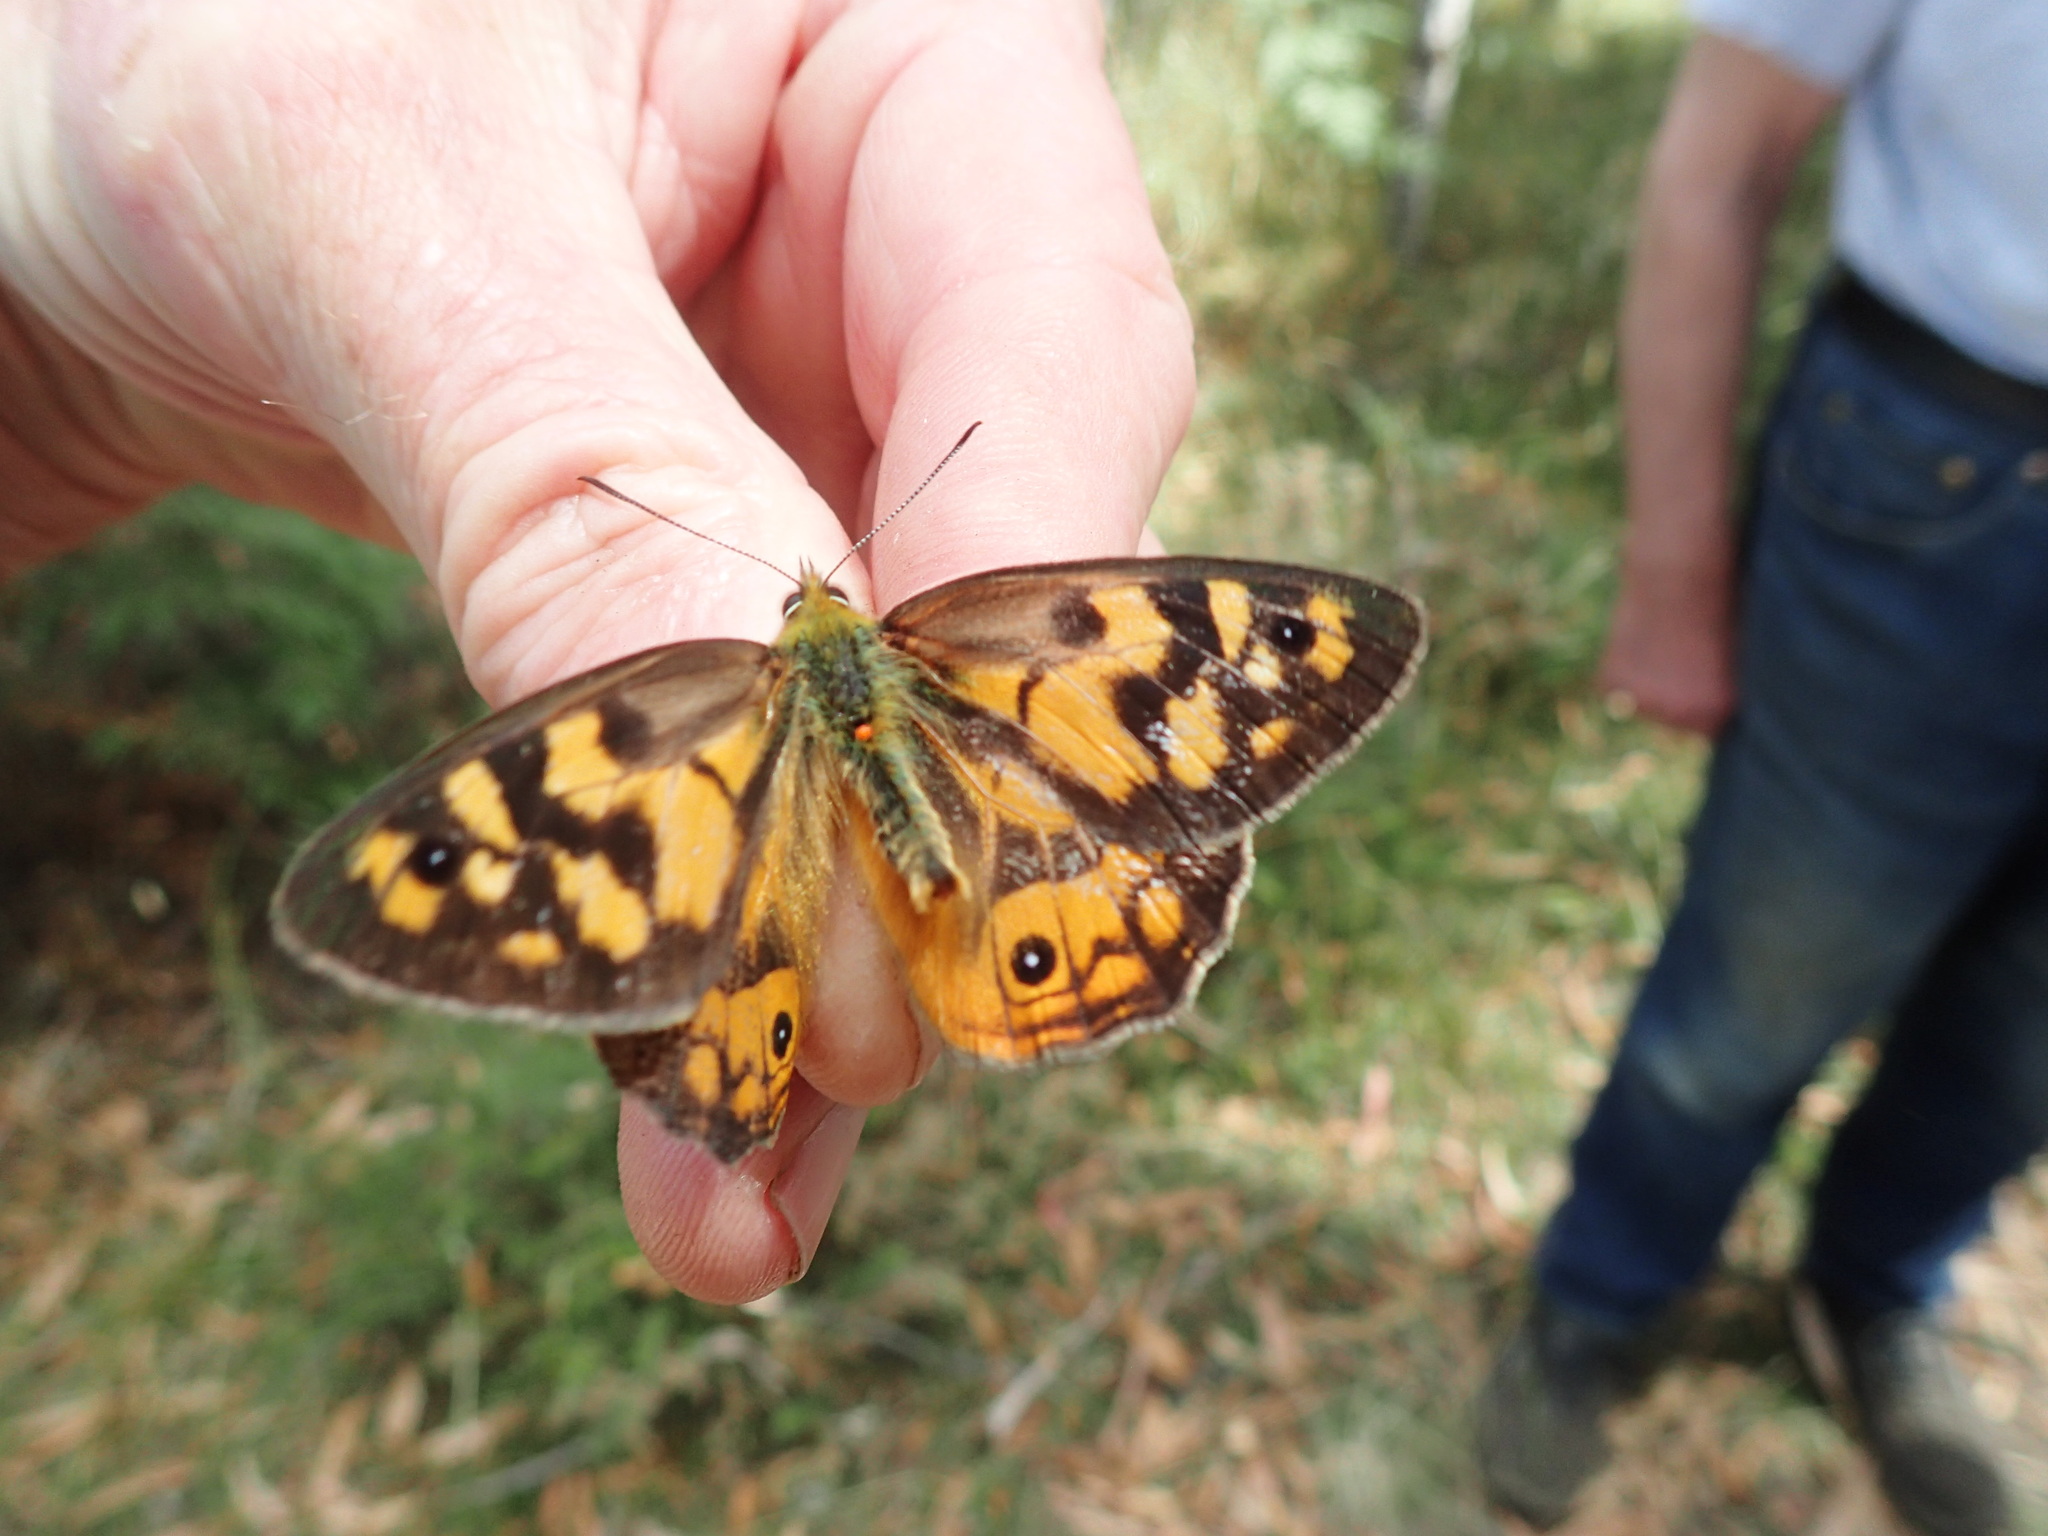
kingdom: Animalia
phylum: Arthropoda
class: Insecta
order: Lepidoptera
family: Nymphalidae
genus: Heteronympha
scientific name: Heteronympha penelope
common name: Shouldered brown
